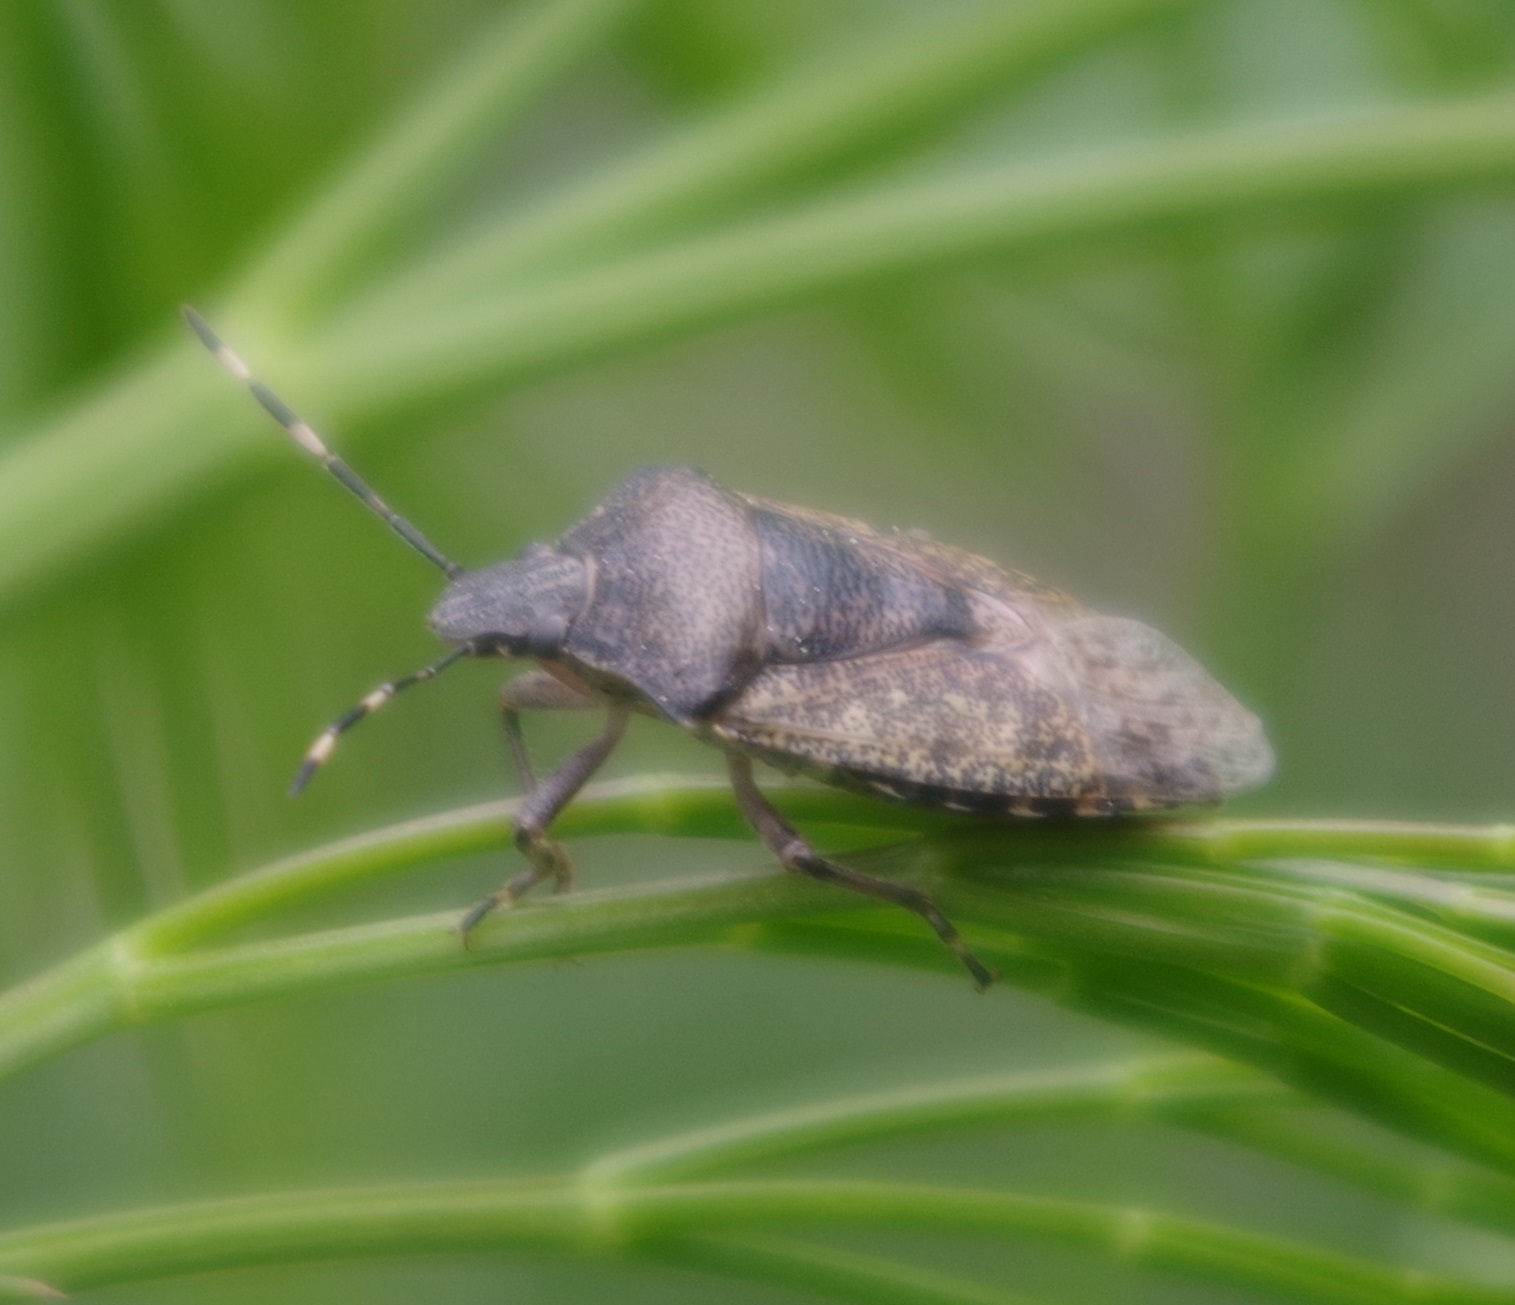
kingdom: Animalia
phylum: Arthropoda
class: Insecta
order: Hemiptera
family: Pentatomidae
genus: Rhaphigaster
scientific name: Rhaphigaster nebulosa
